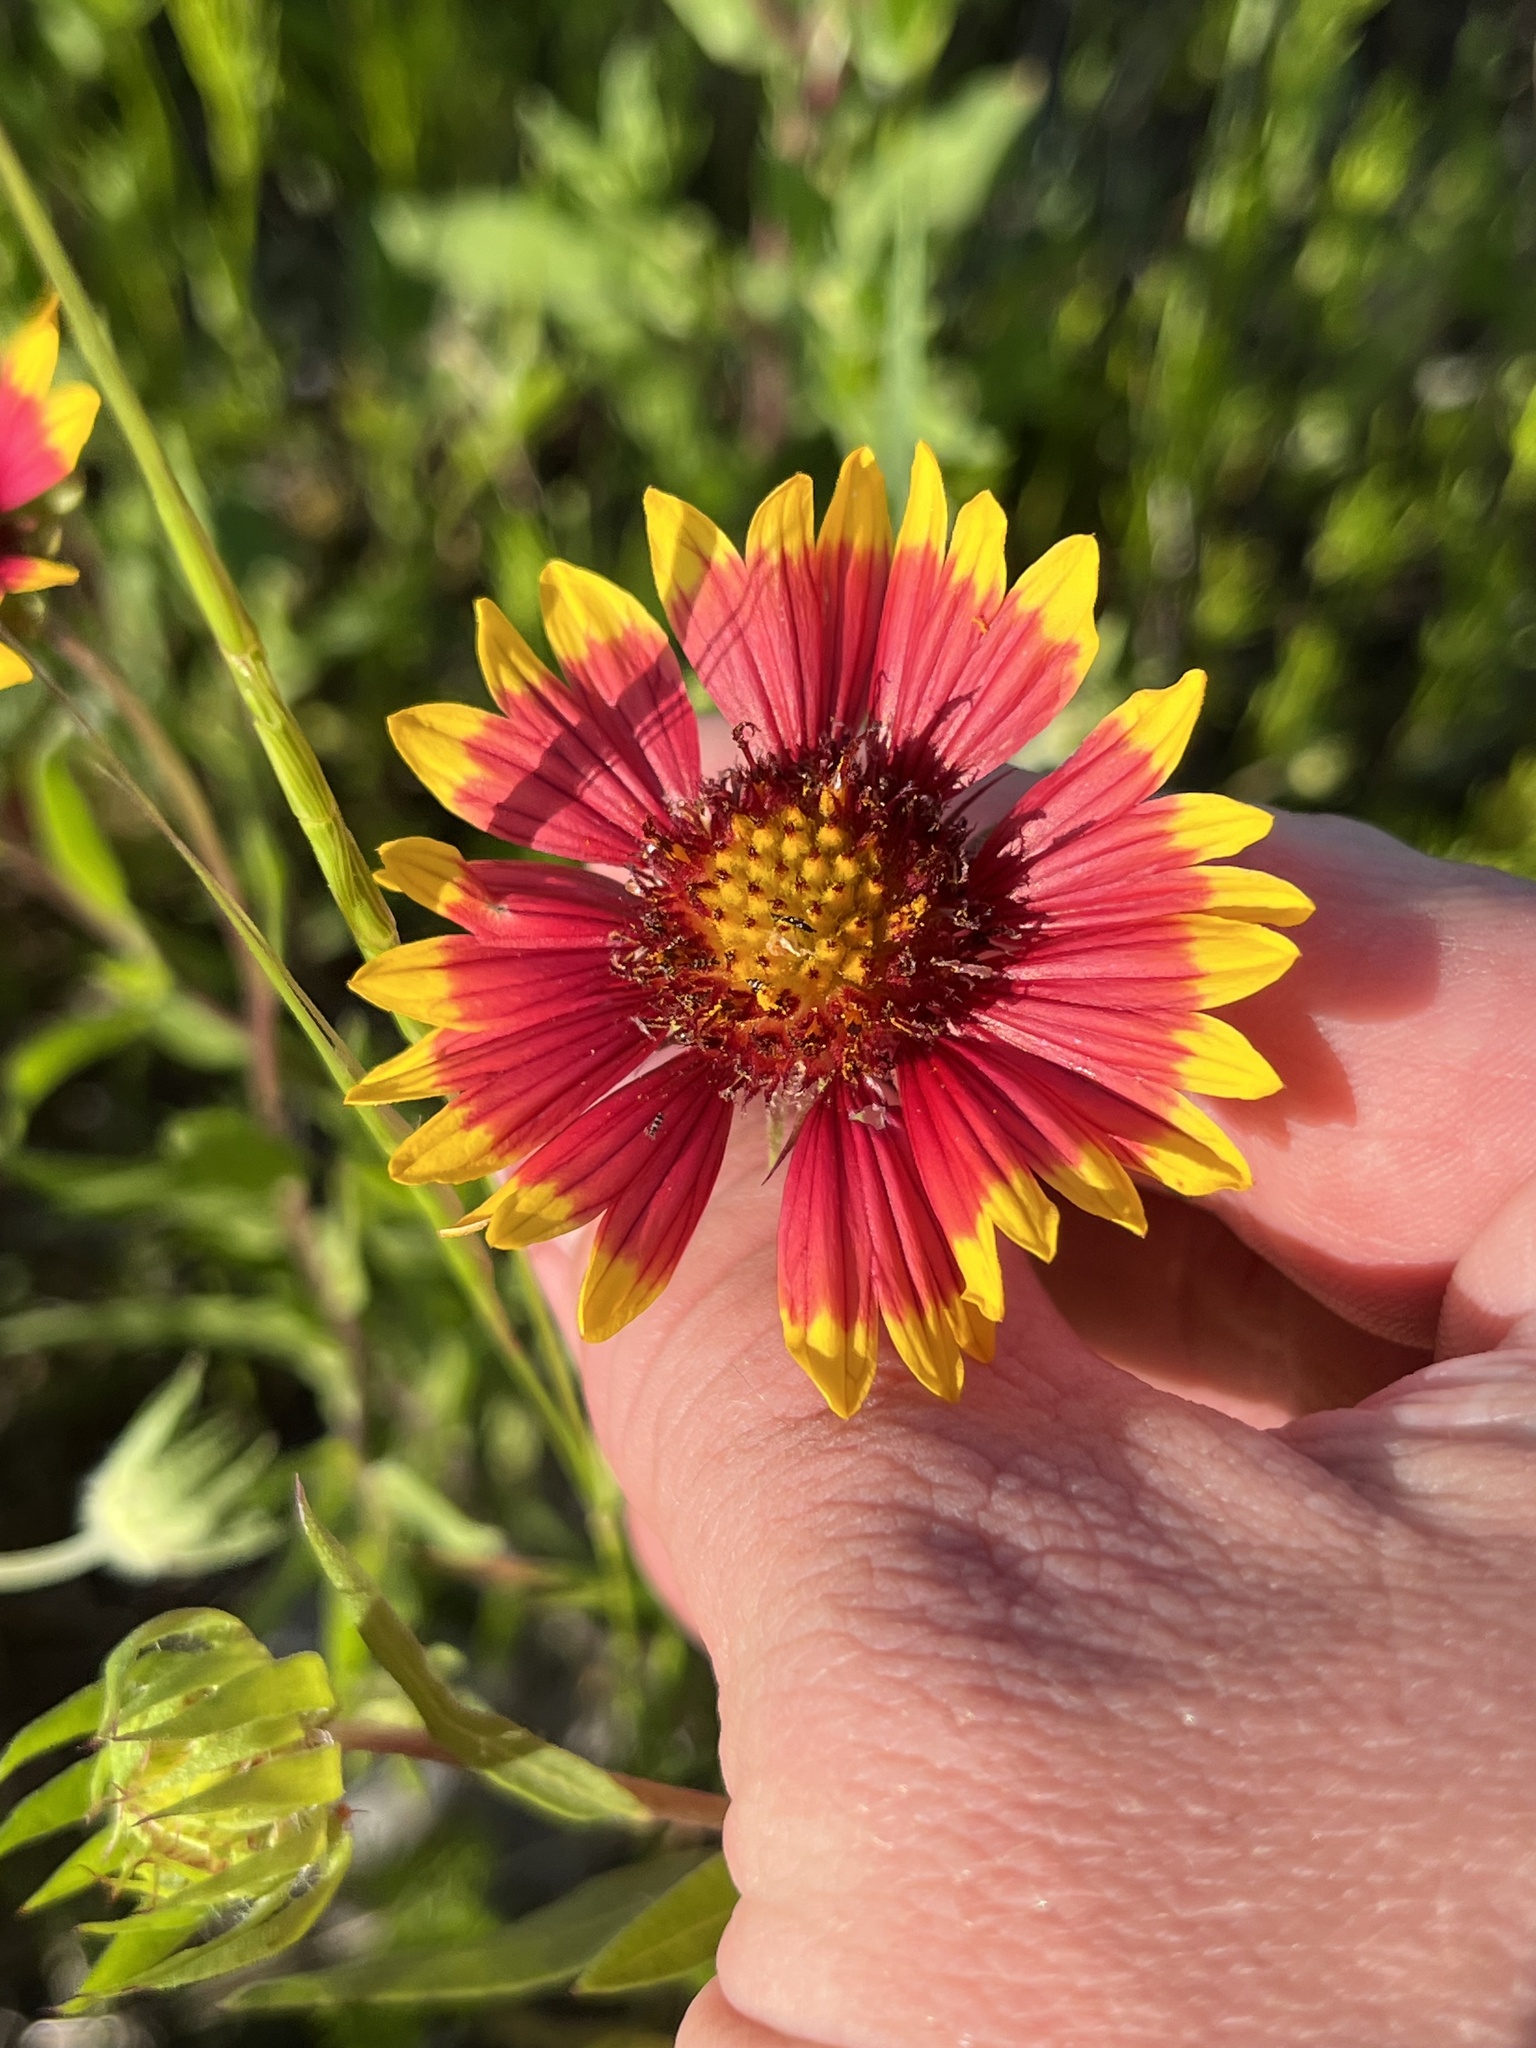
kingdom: Plantae
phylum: Tracheophyta
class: Magnoliopsida
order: Asterales
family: Asteraceae
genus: Gaillardia
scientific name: Gaillardia pulchella
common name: Firewheel
